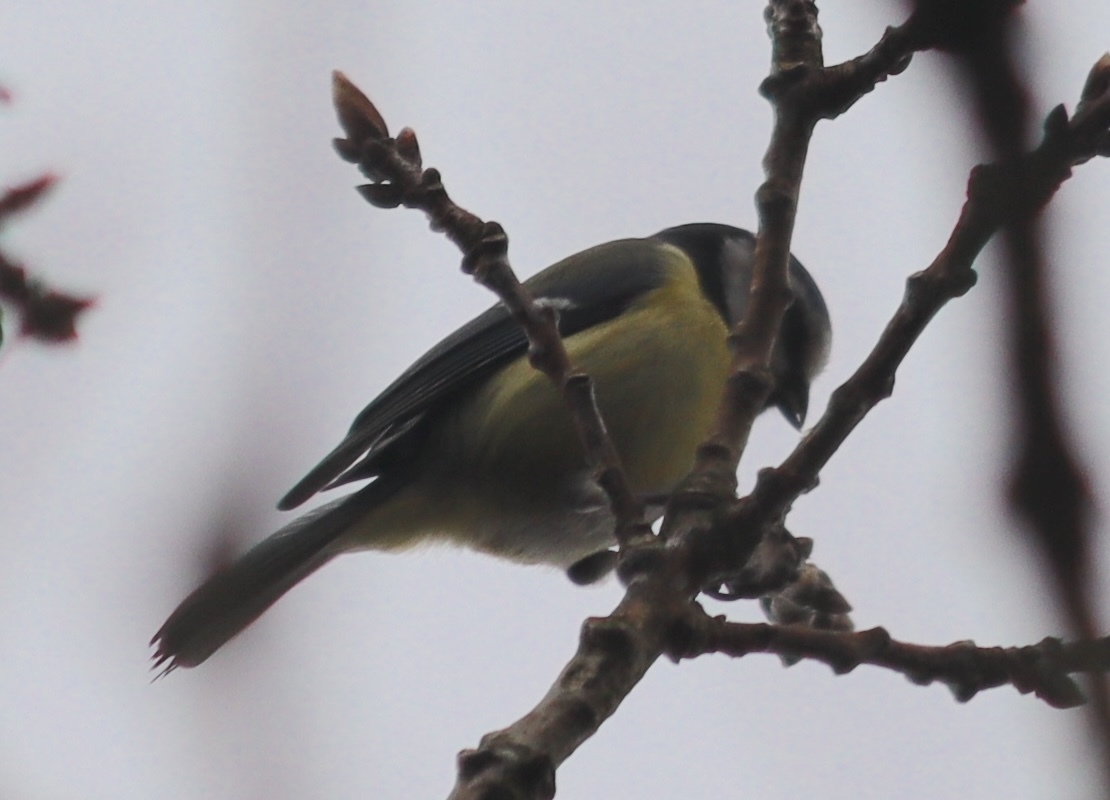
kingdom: Animalia
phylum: Chordata
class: Aves
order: Passeriformes
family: Paridae
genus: Cyanistes
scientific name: Cyanistes caeruleus
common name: Eurasian blue tit
